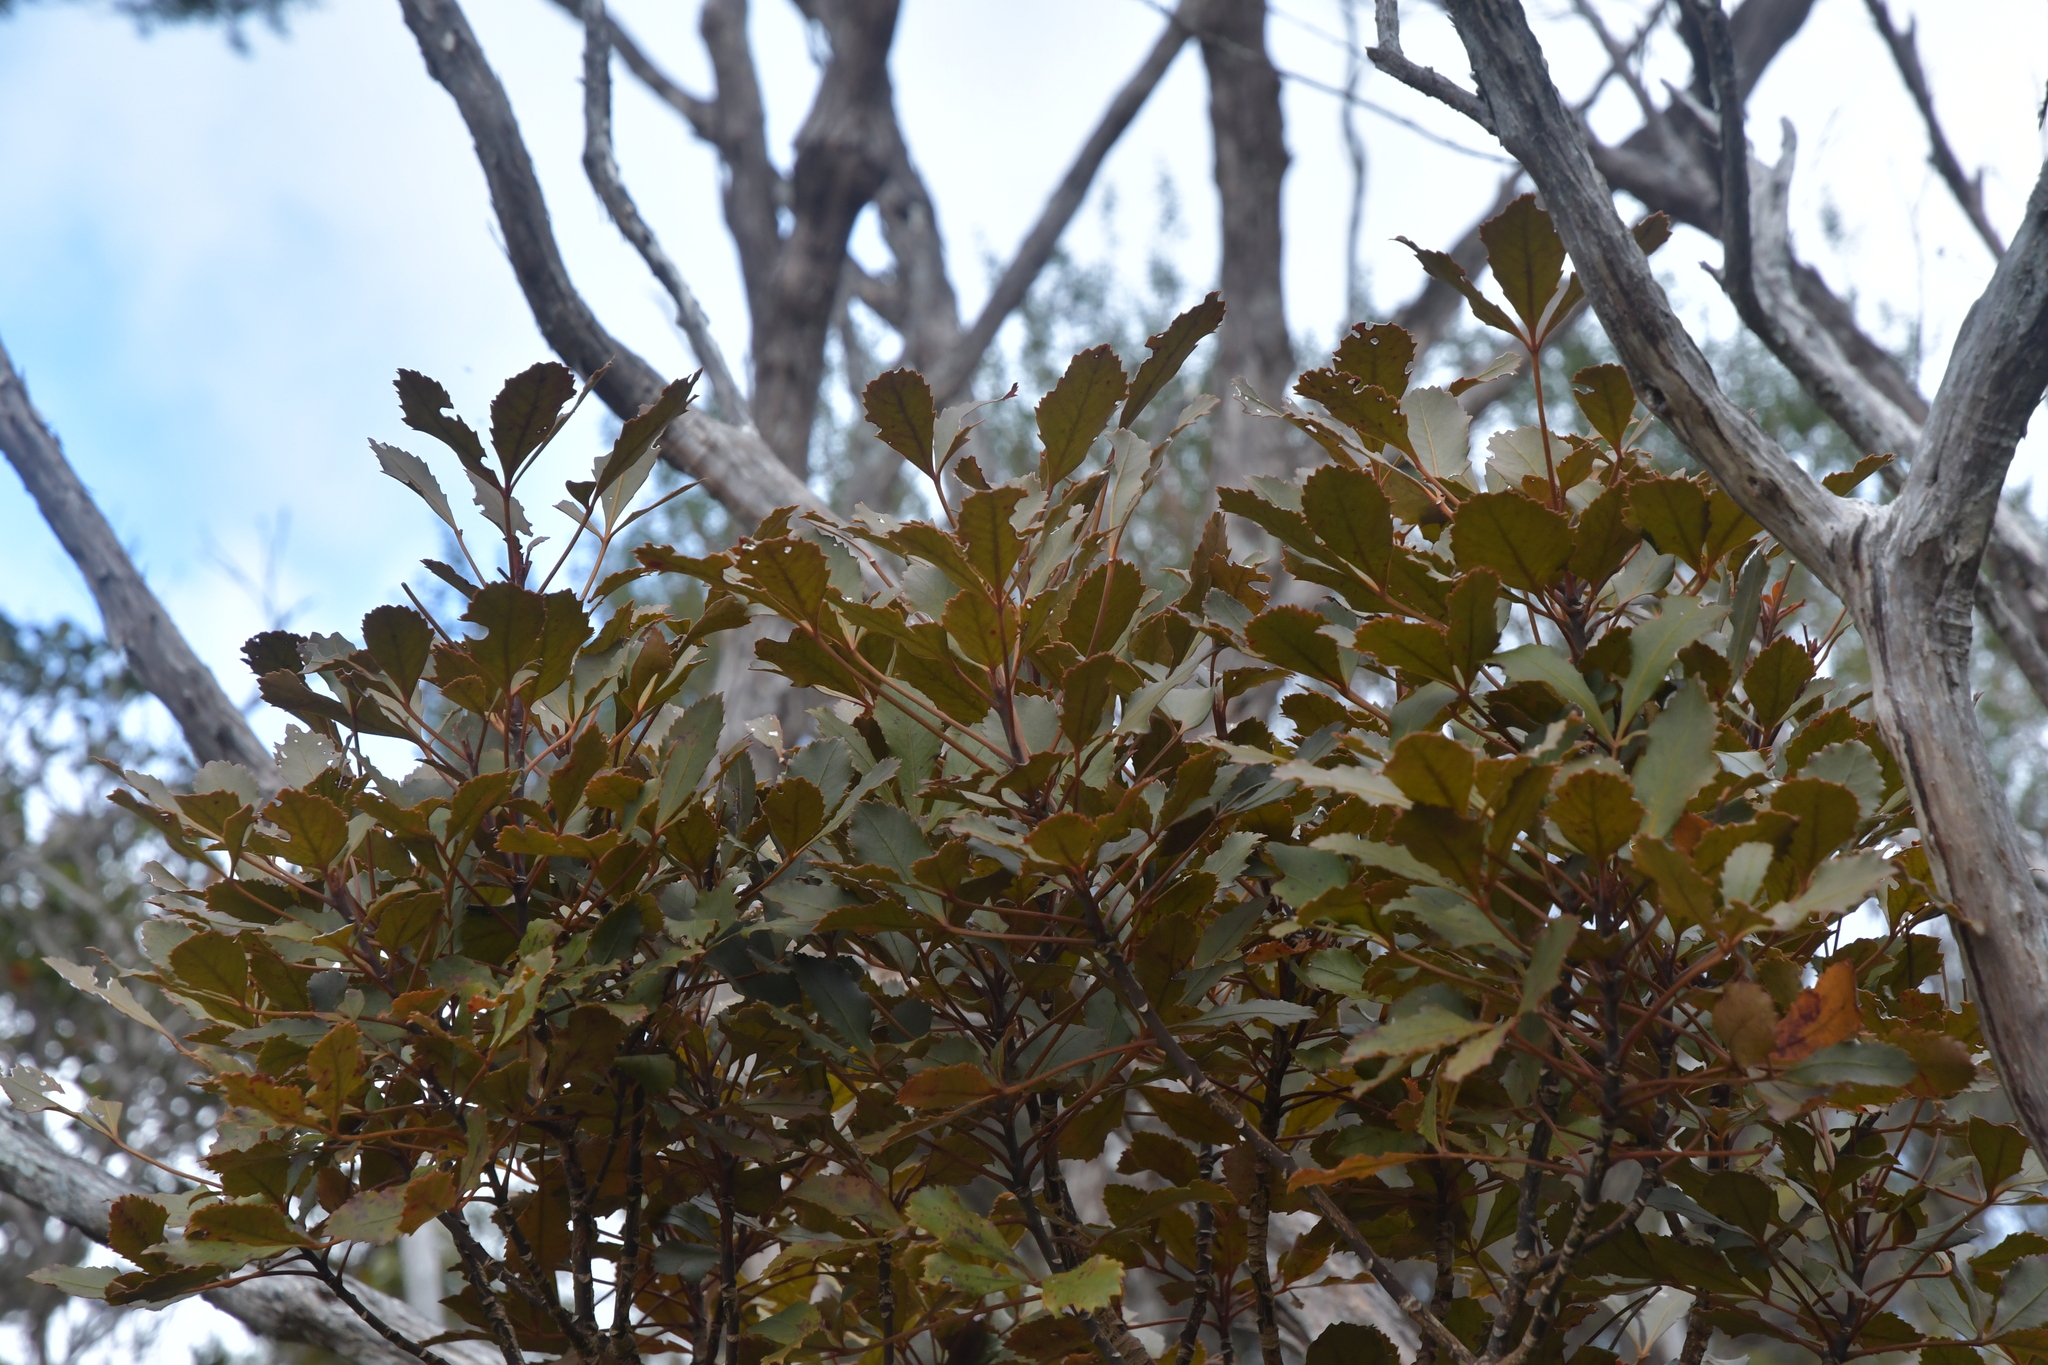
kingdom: Plantae
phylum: Tracheophyta
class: Magnoliopsida
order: Apiales
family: Araliaceae
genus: Pseudopanax
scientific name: Pseudopanax discolor
